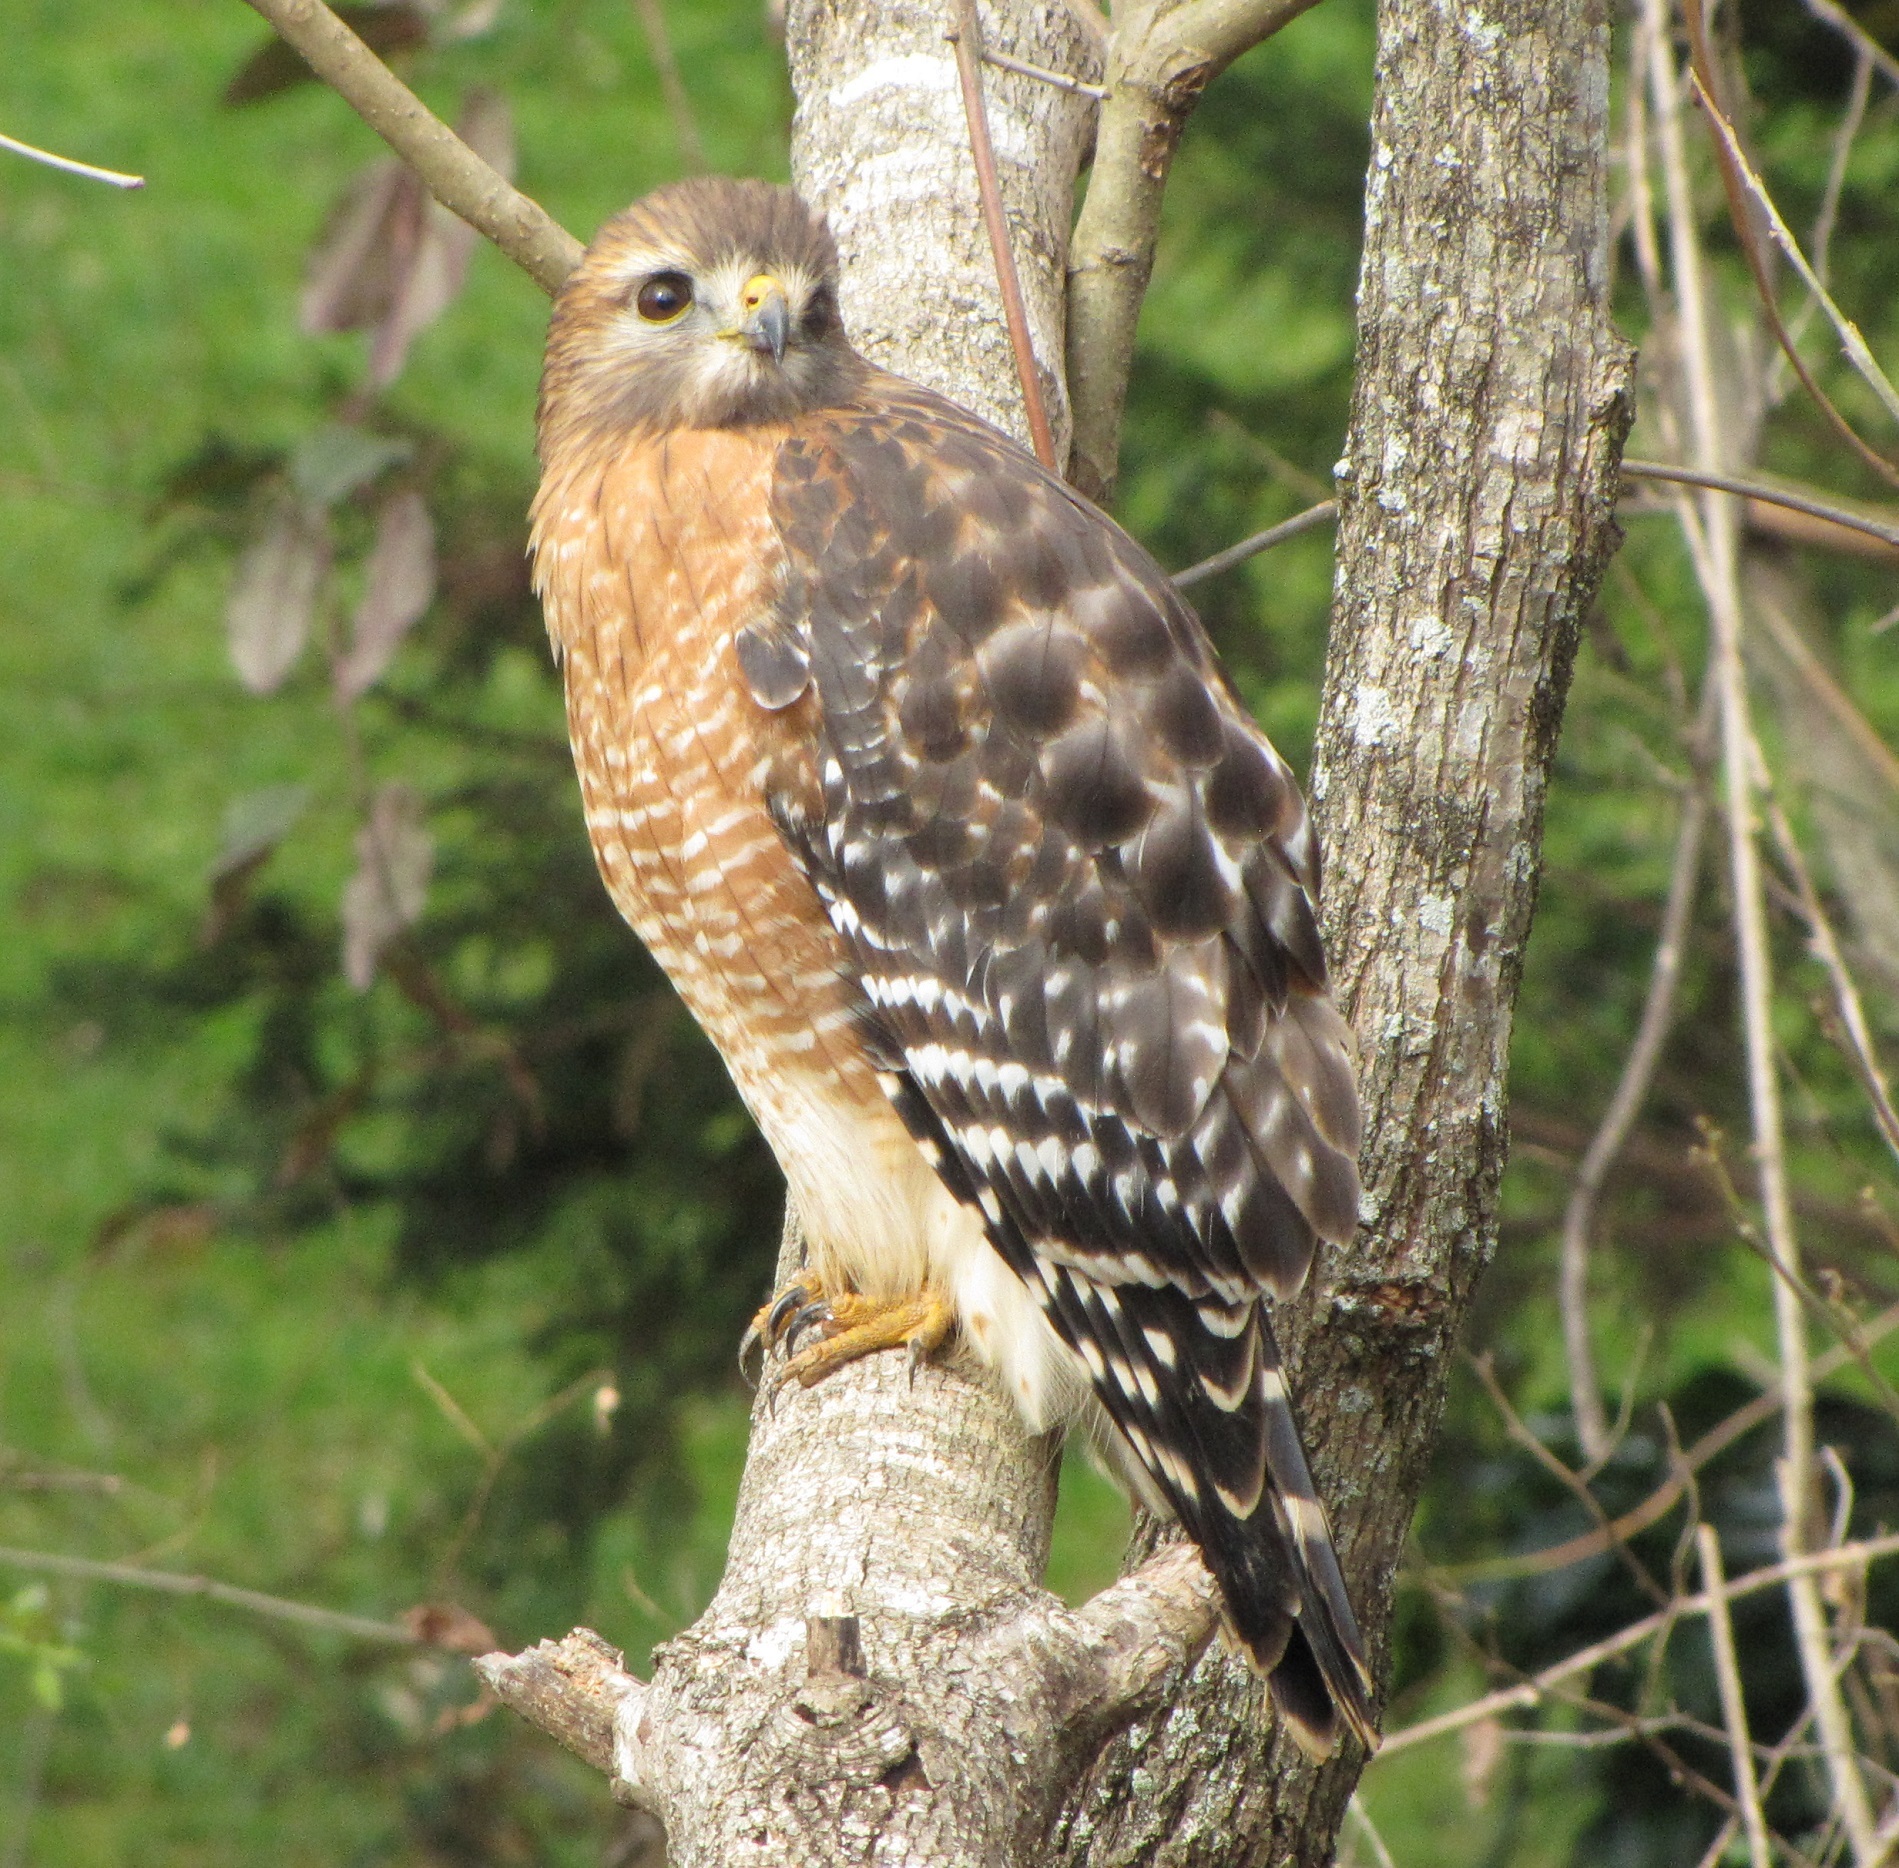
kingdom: Animalia
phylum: Chordata
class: Aves
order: Accipitriformes
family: Accipitridae
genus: Buteo
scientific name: Buteo lineatus
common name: Red-shouldered hawk
